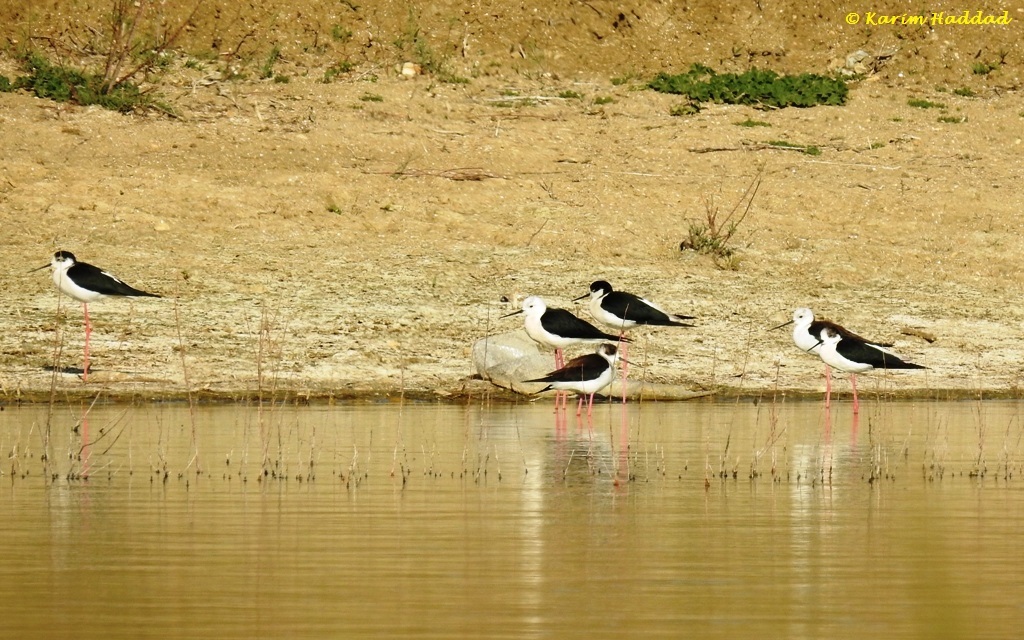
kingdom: Animalia
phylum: Chordata
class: Aves
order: Charadriiformes
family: Recurvirostridae
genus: Himantopus
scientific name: Himantopus himantopus
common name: Black-winged stilt
